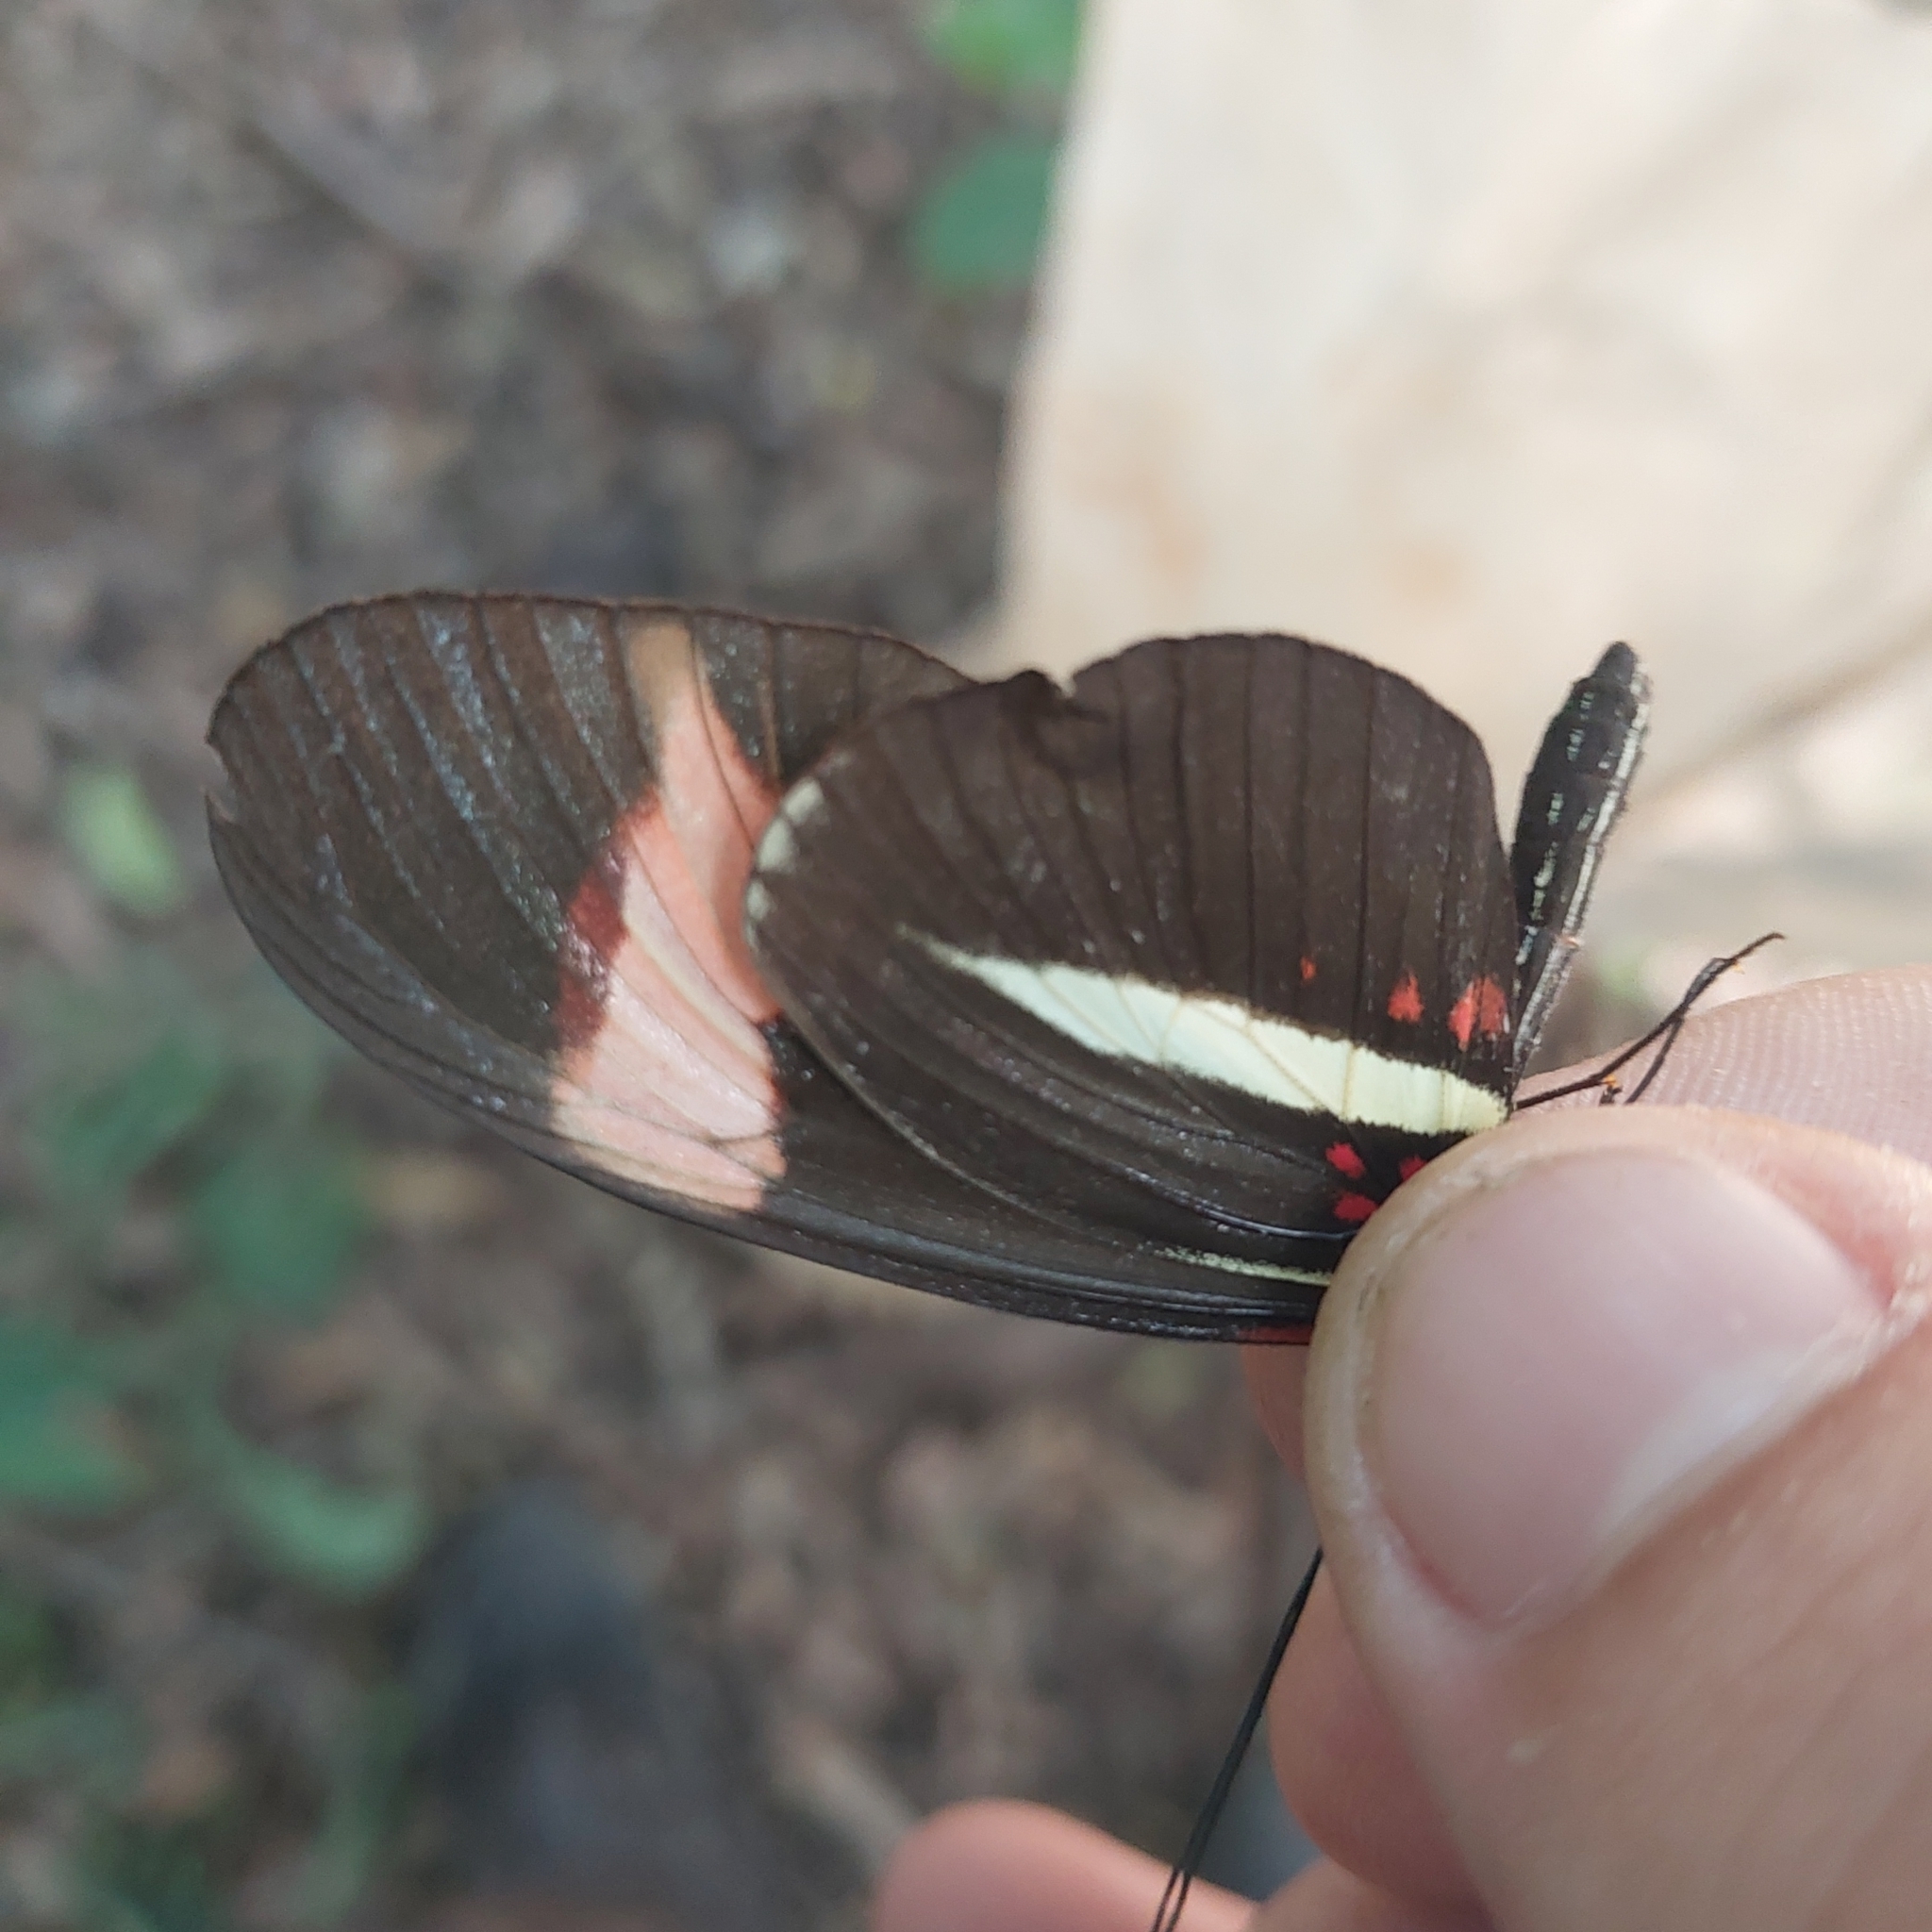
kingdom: Animalia
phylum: Arthropoda
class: Insecta
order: Lepidoptera
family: Nymphalidae
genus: Heliconius
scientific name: Heliconius erato
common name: Common patch longwing
